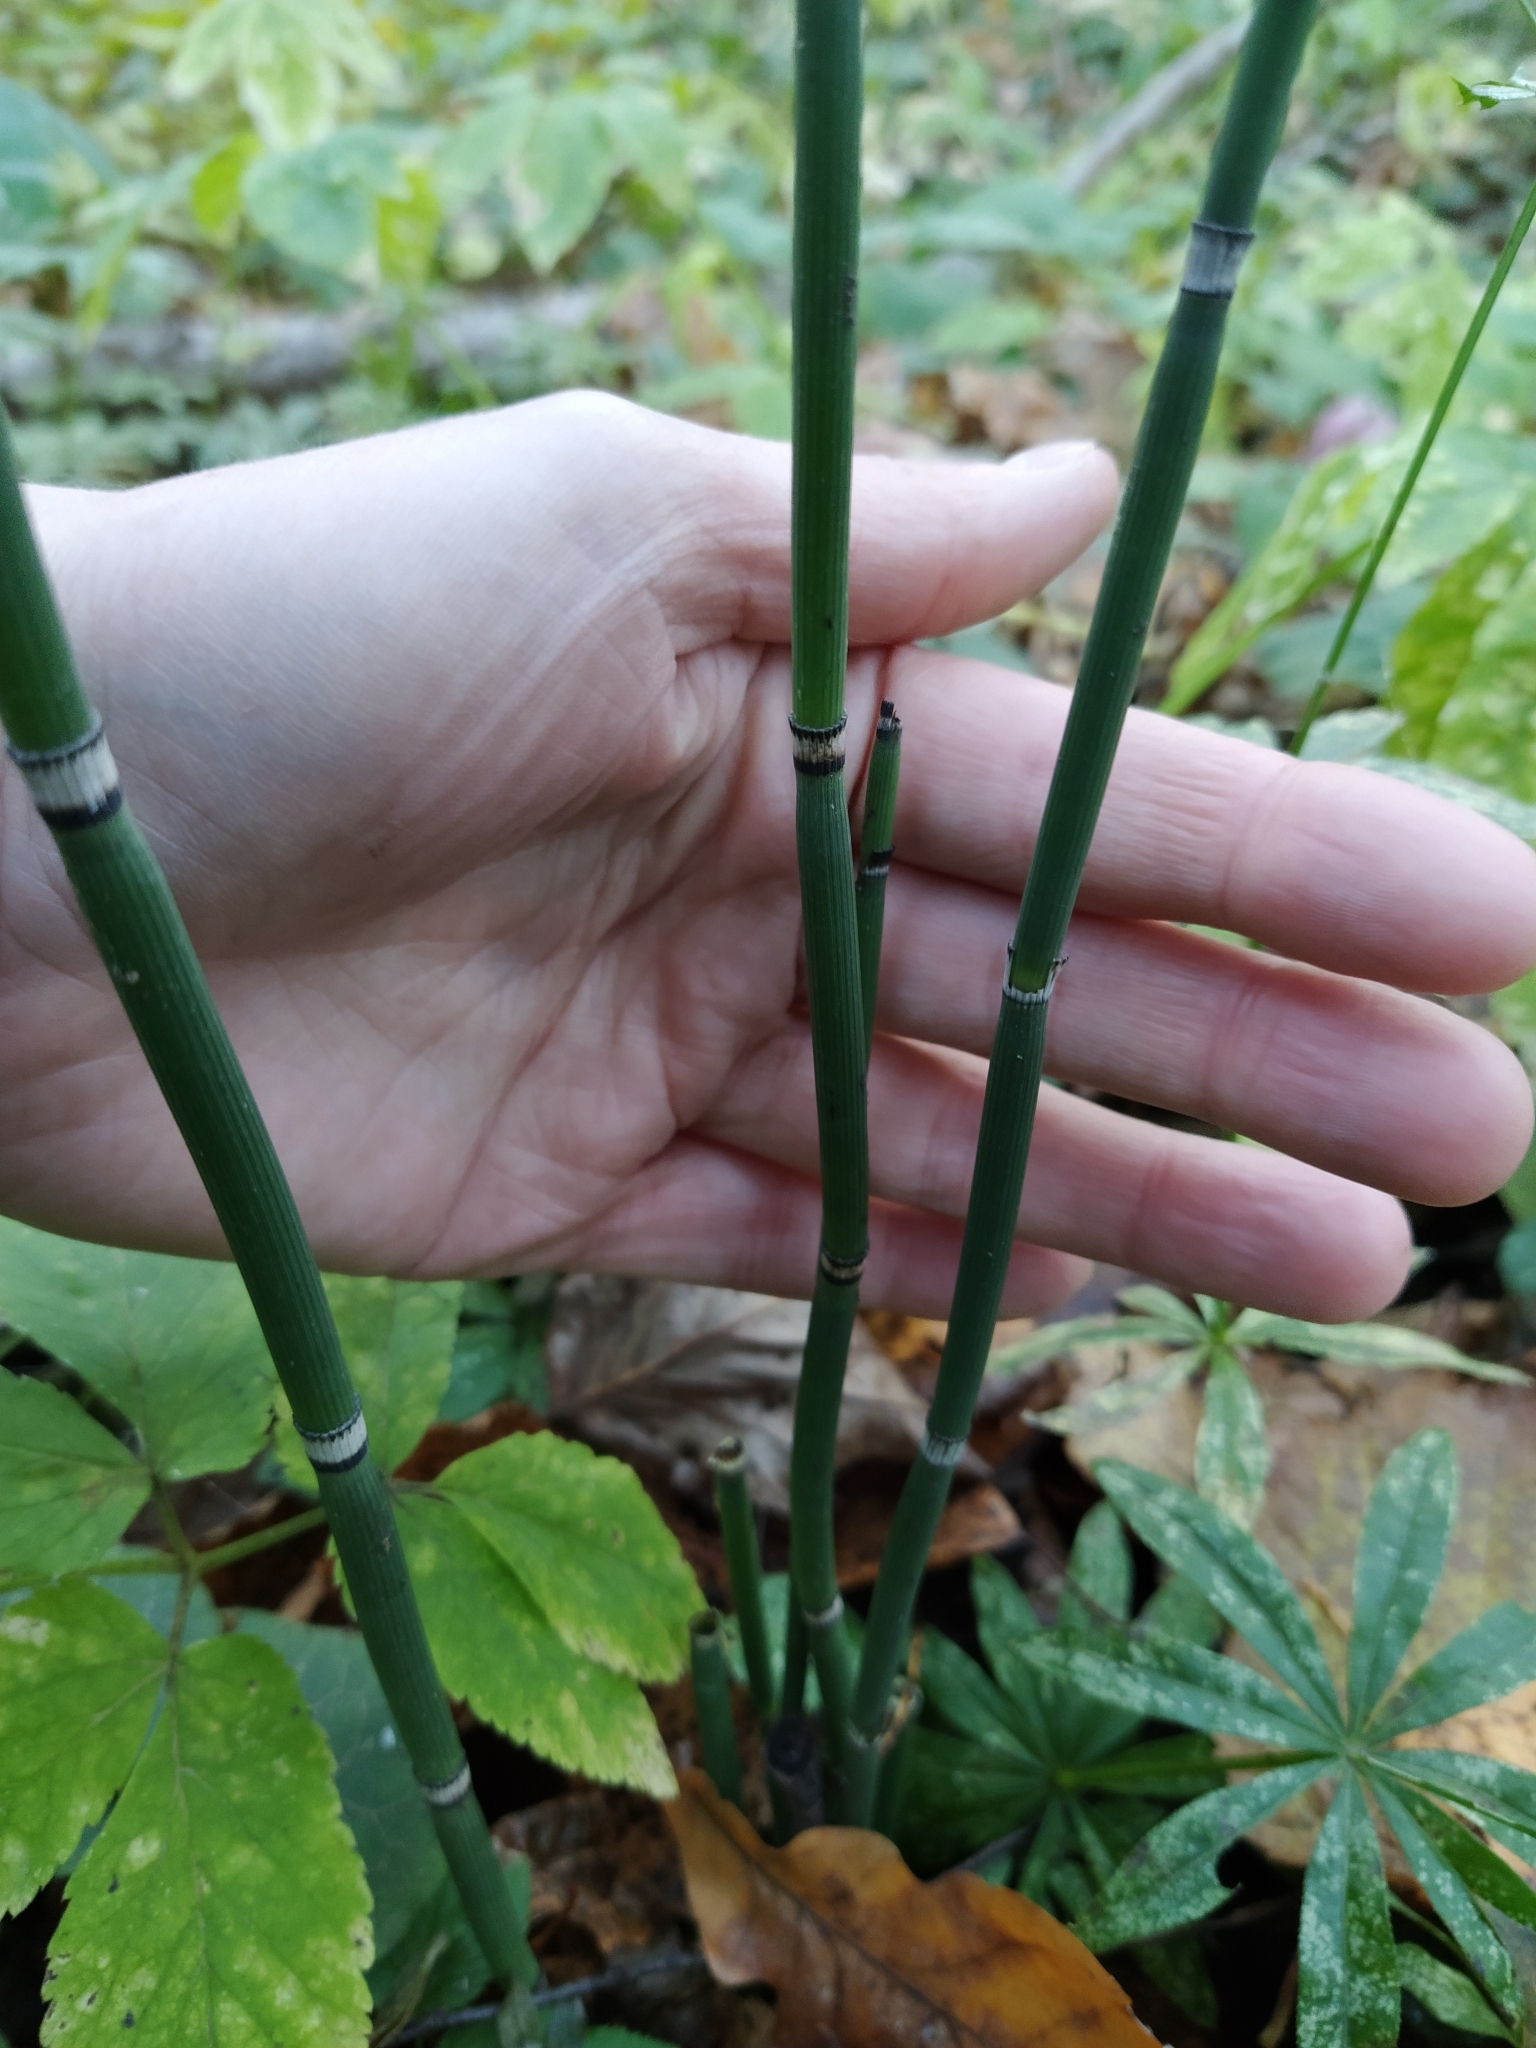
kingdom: Plantae
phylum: Tracheophyta
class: Polypodiopsida
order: Equisetales
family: Equisetaceae
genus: Equisetum
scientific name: Equisetum hyemale
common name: Rough horsetail
